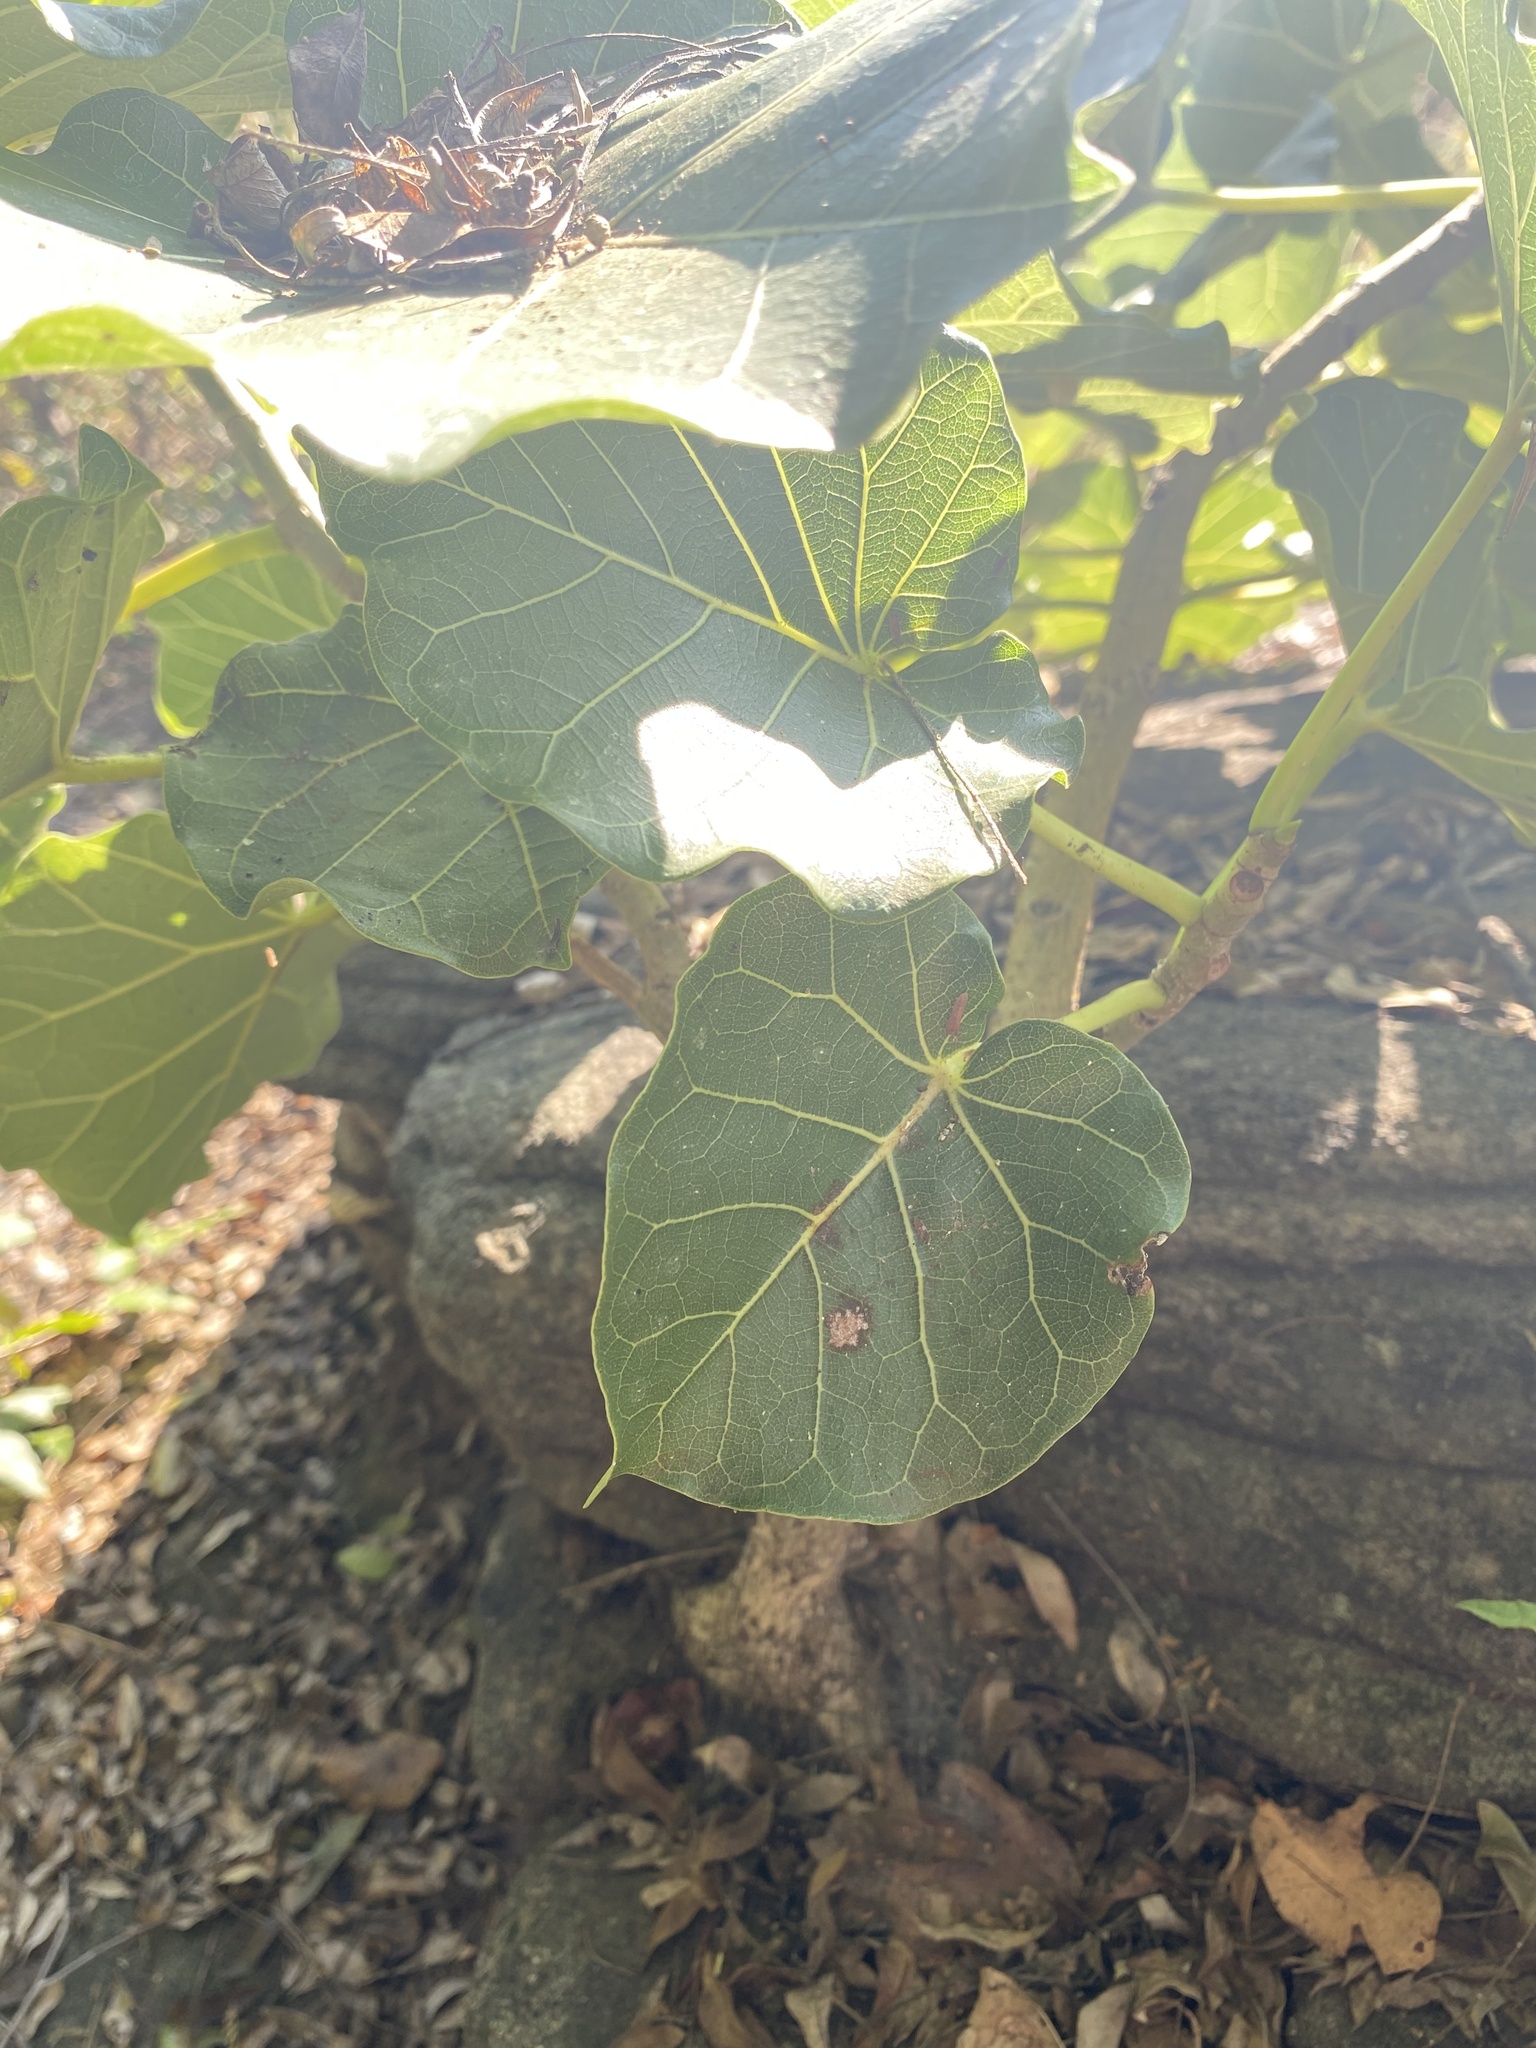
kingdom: Plantae
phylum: Tracheophyta
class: Magnoliopsida
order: Rosales
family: Moraceae
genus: Ficus
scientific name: Ficus abutilifolia
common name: Large-leaved rock fig
